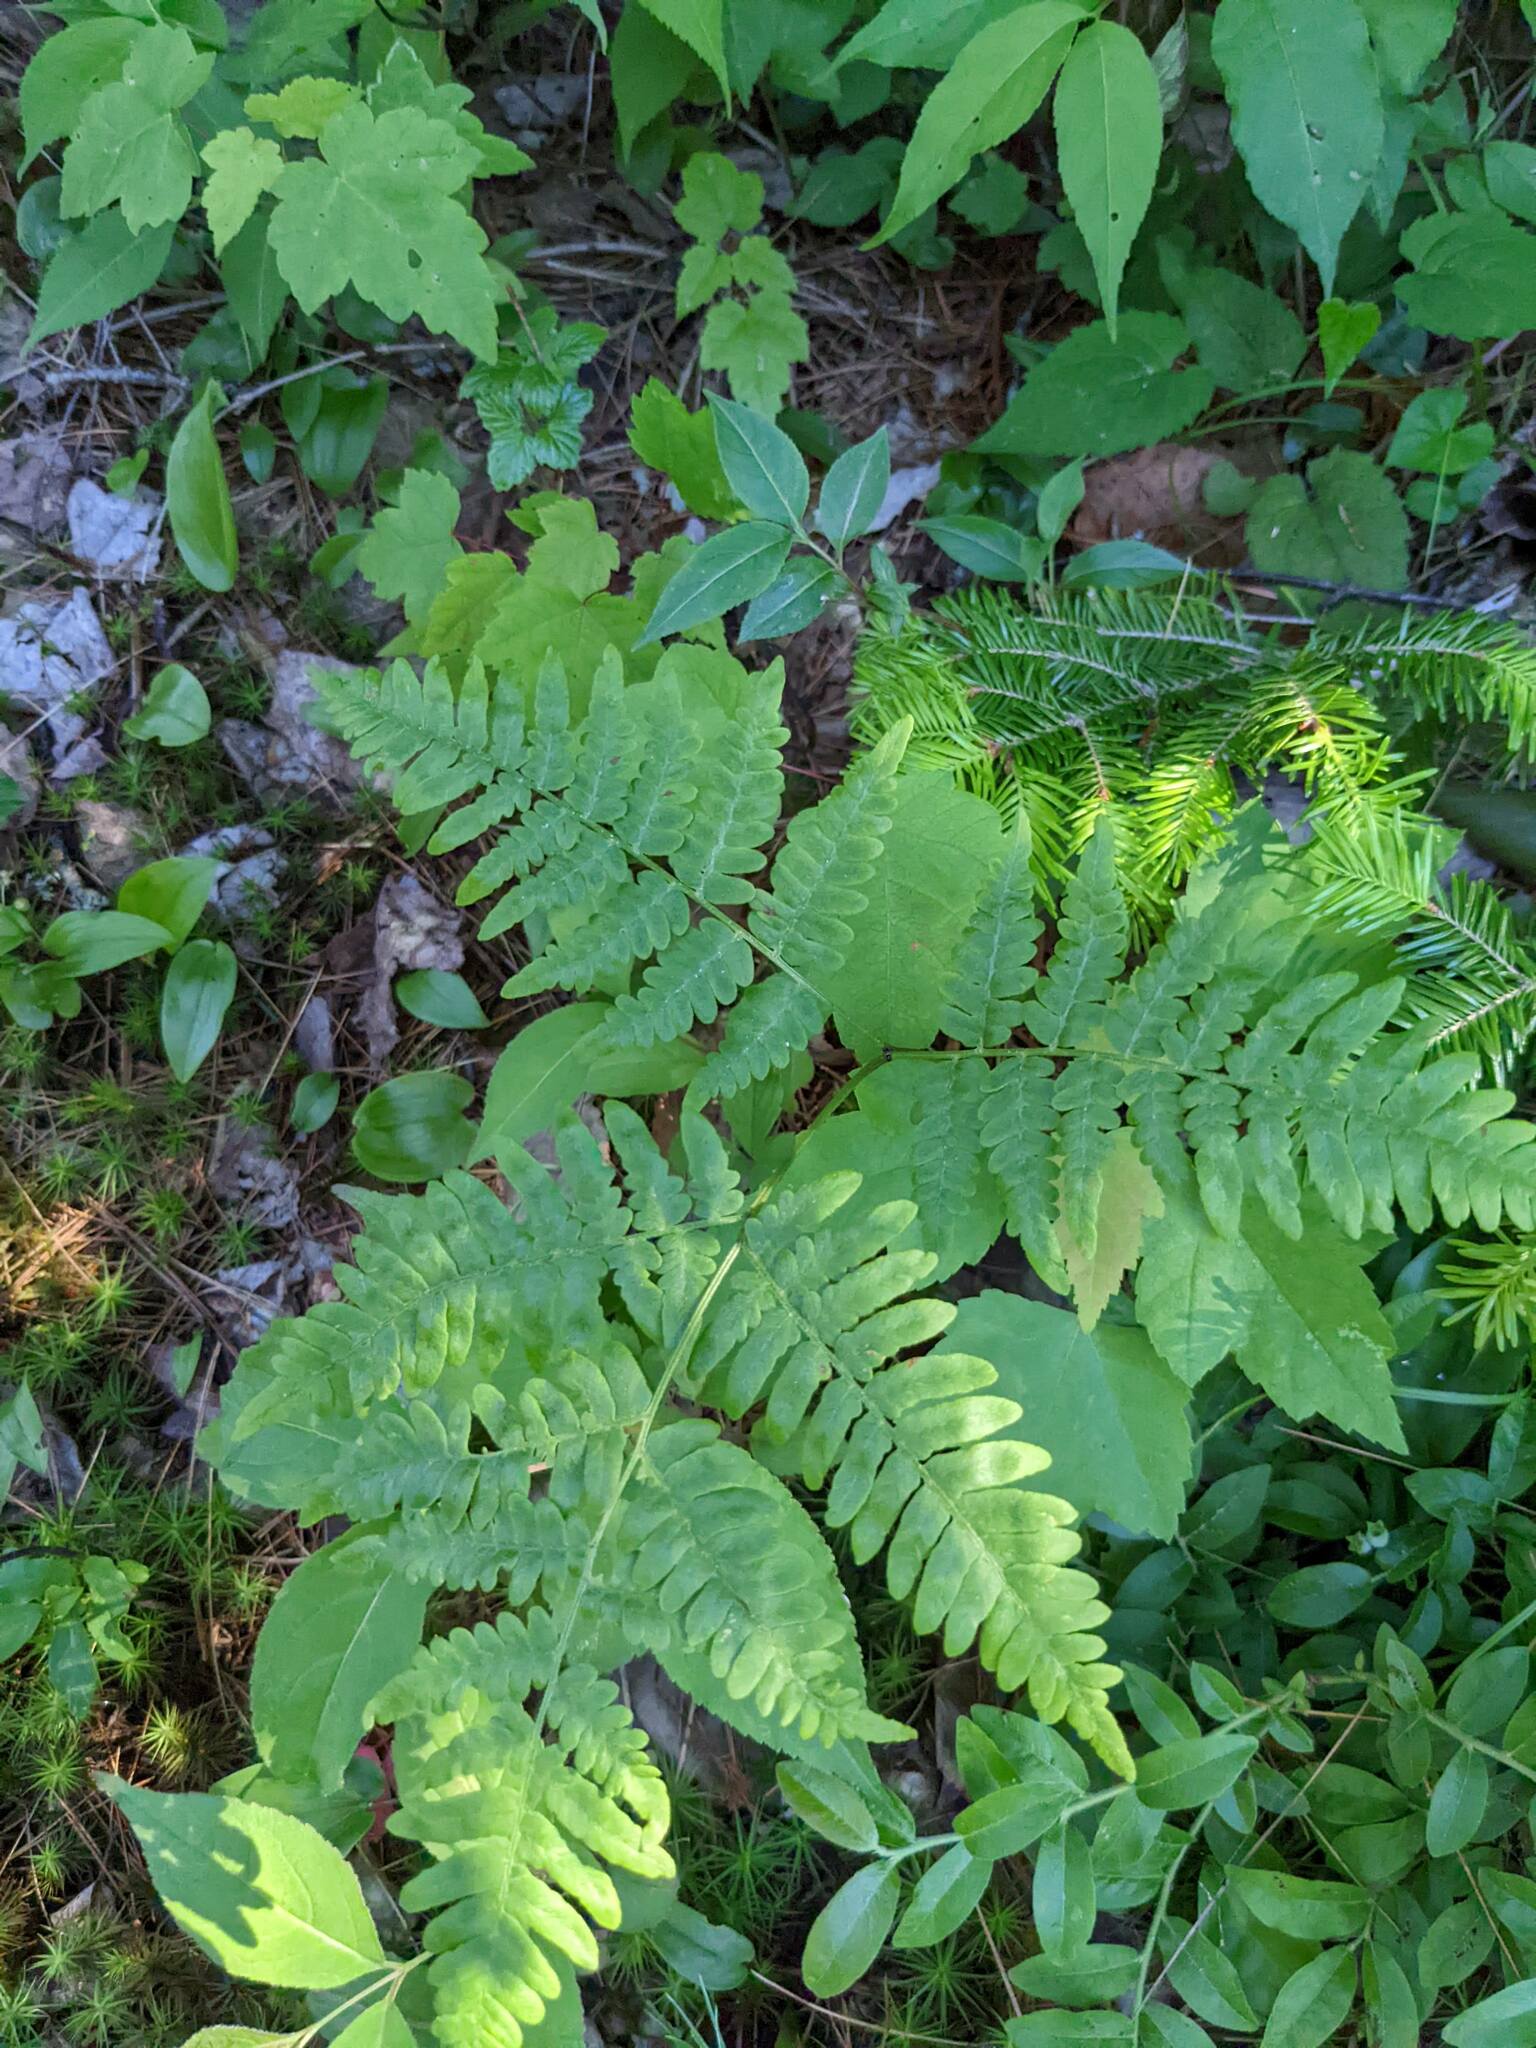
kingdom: Plantae
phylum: Tracheophyta
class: Polypodiopsida
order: Polypodiales
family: Dennstaedtiaceae
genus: Pteridium
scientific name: Pteridium aquilinum
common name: Bracken
